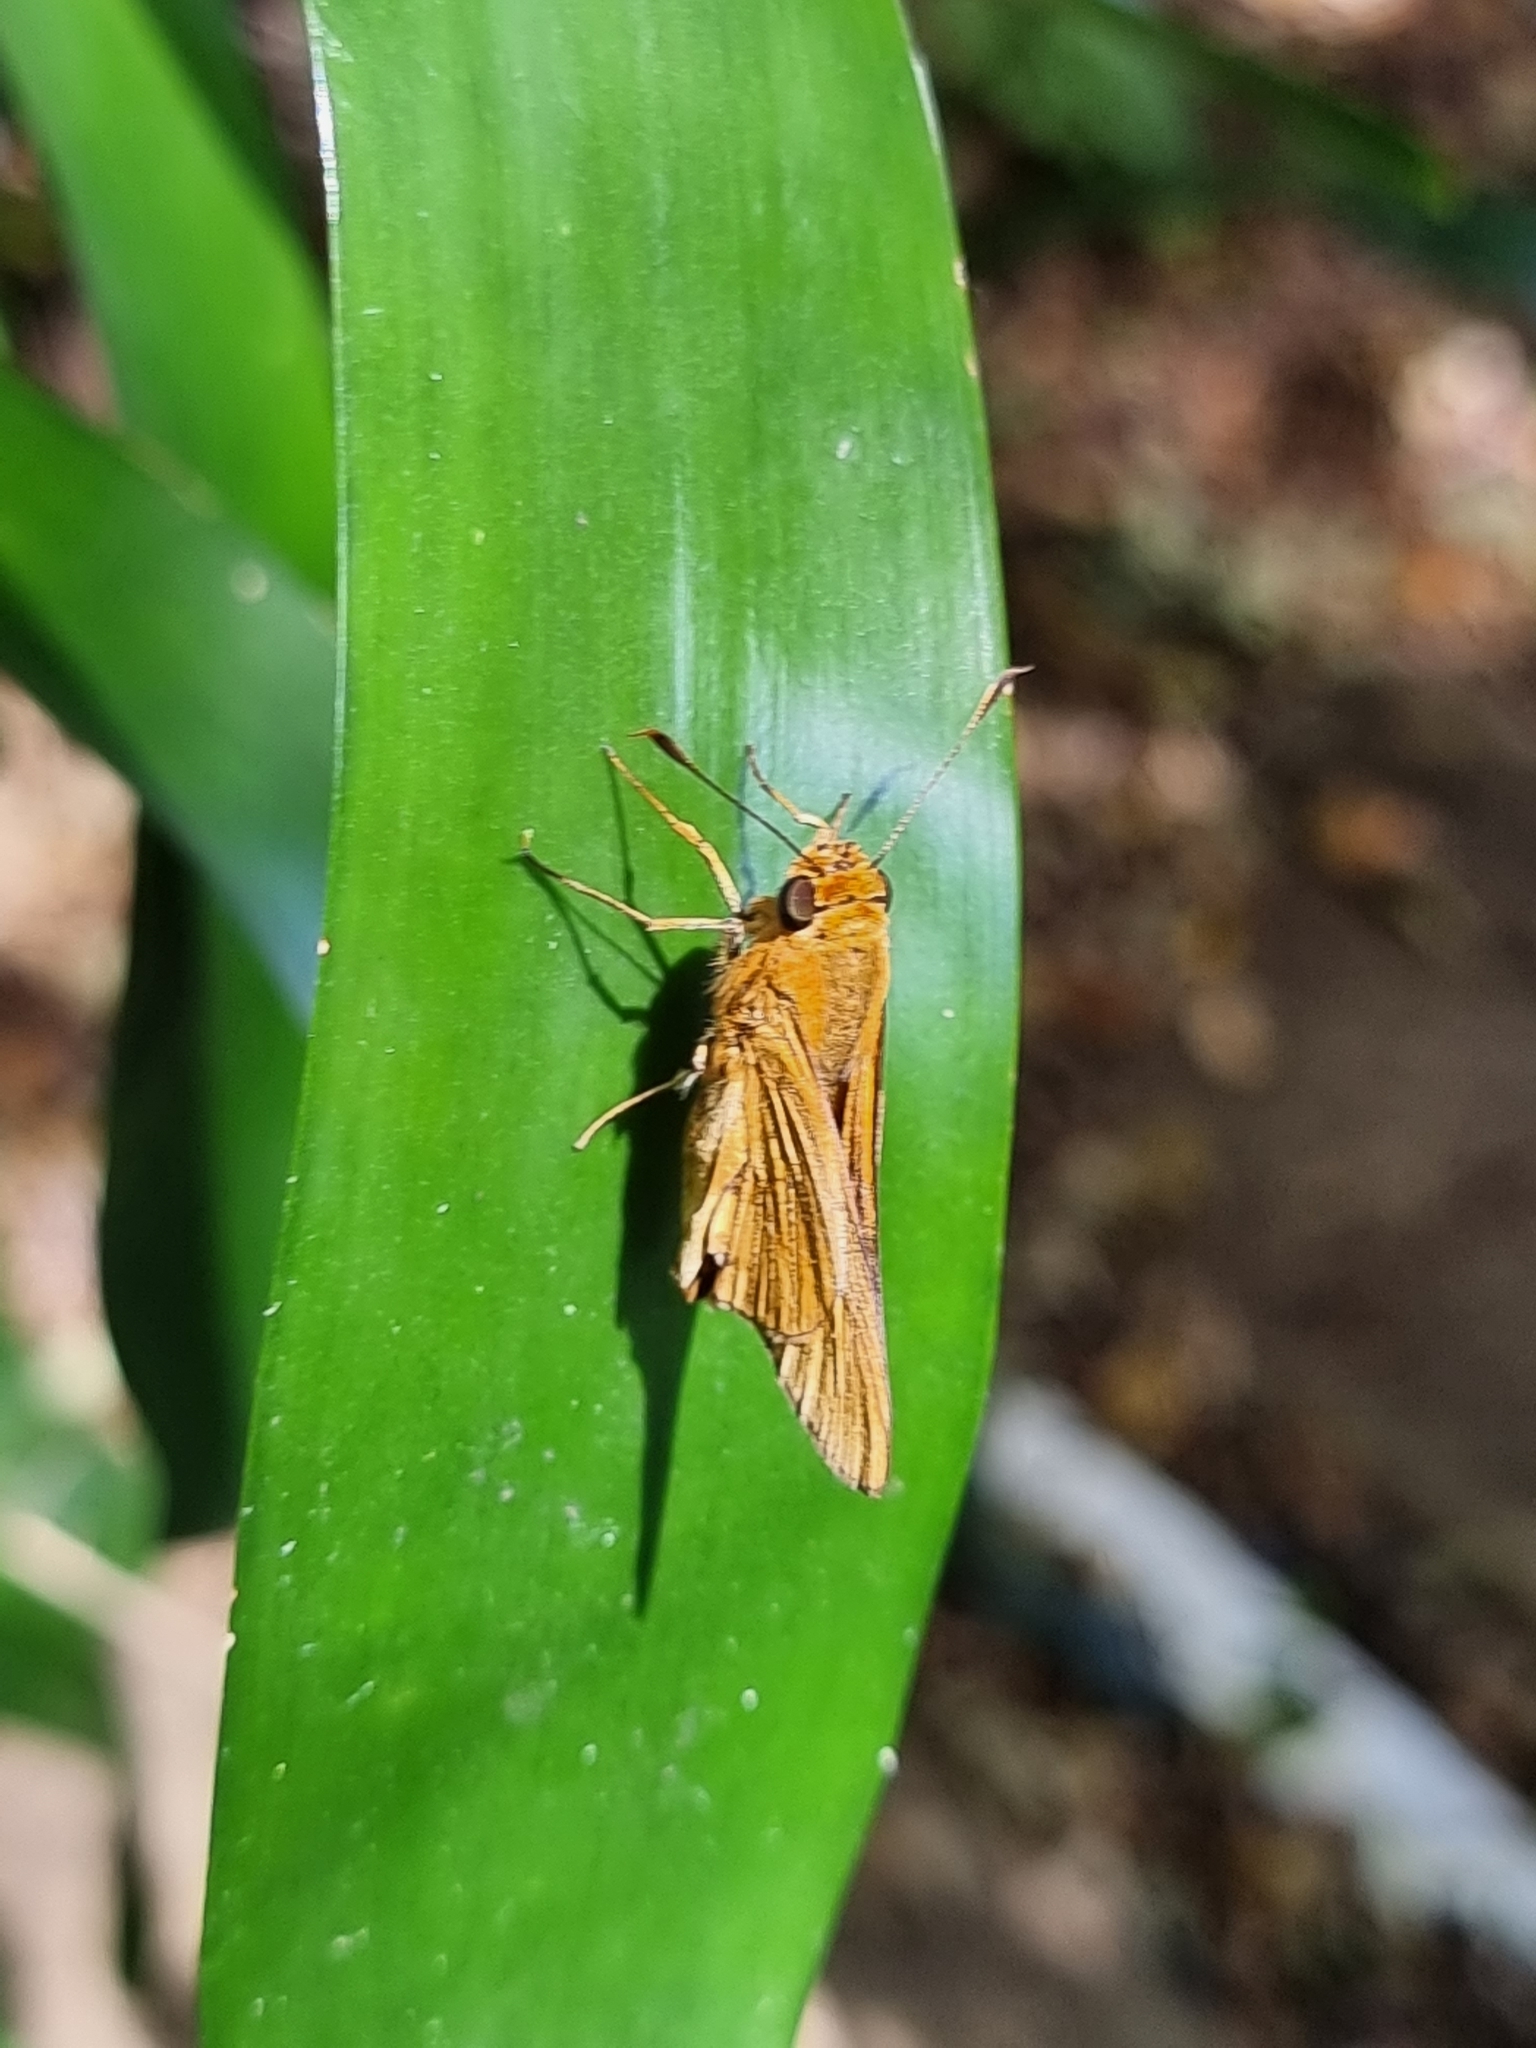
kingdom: Animalia
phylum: Arthropoda
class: Insecta
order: Lepidoptera
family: Hesperiidae
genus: Cephrenes
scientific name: Cephrenes augiades
